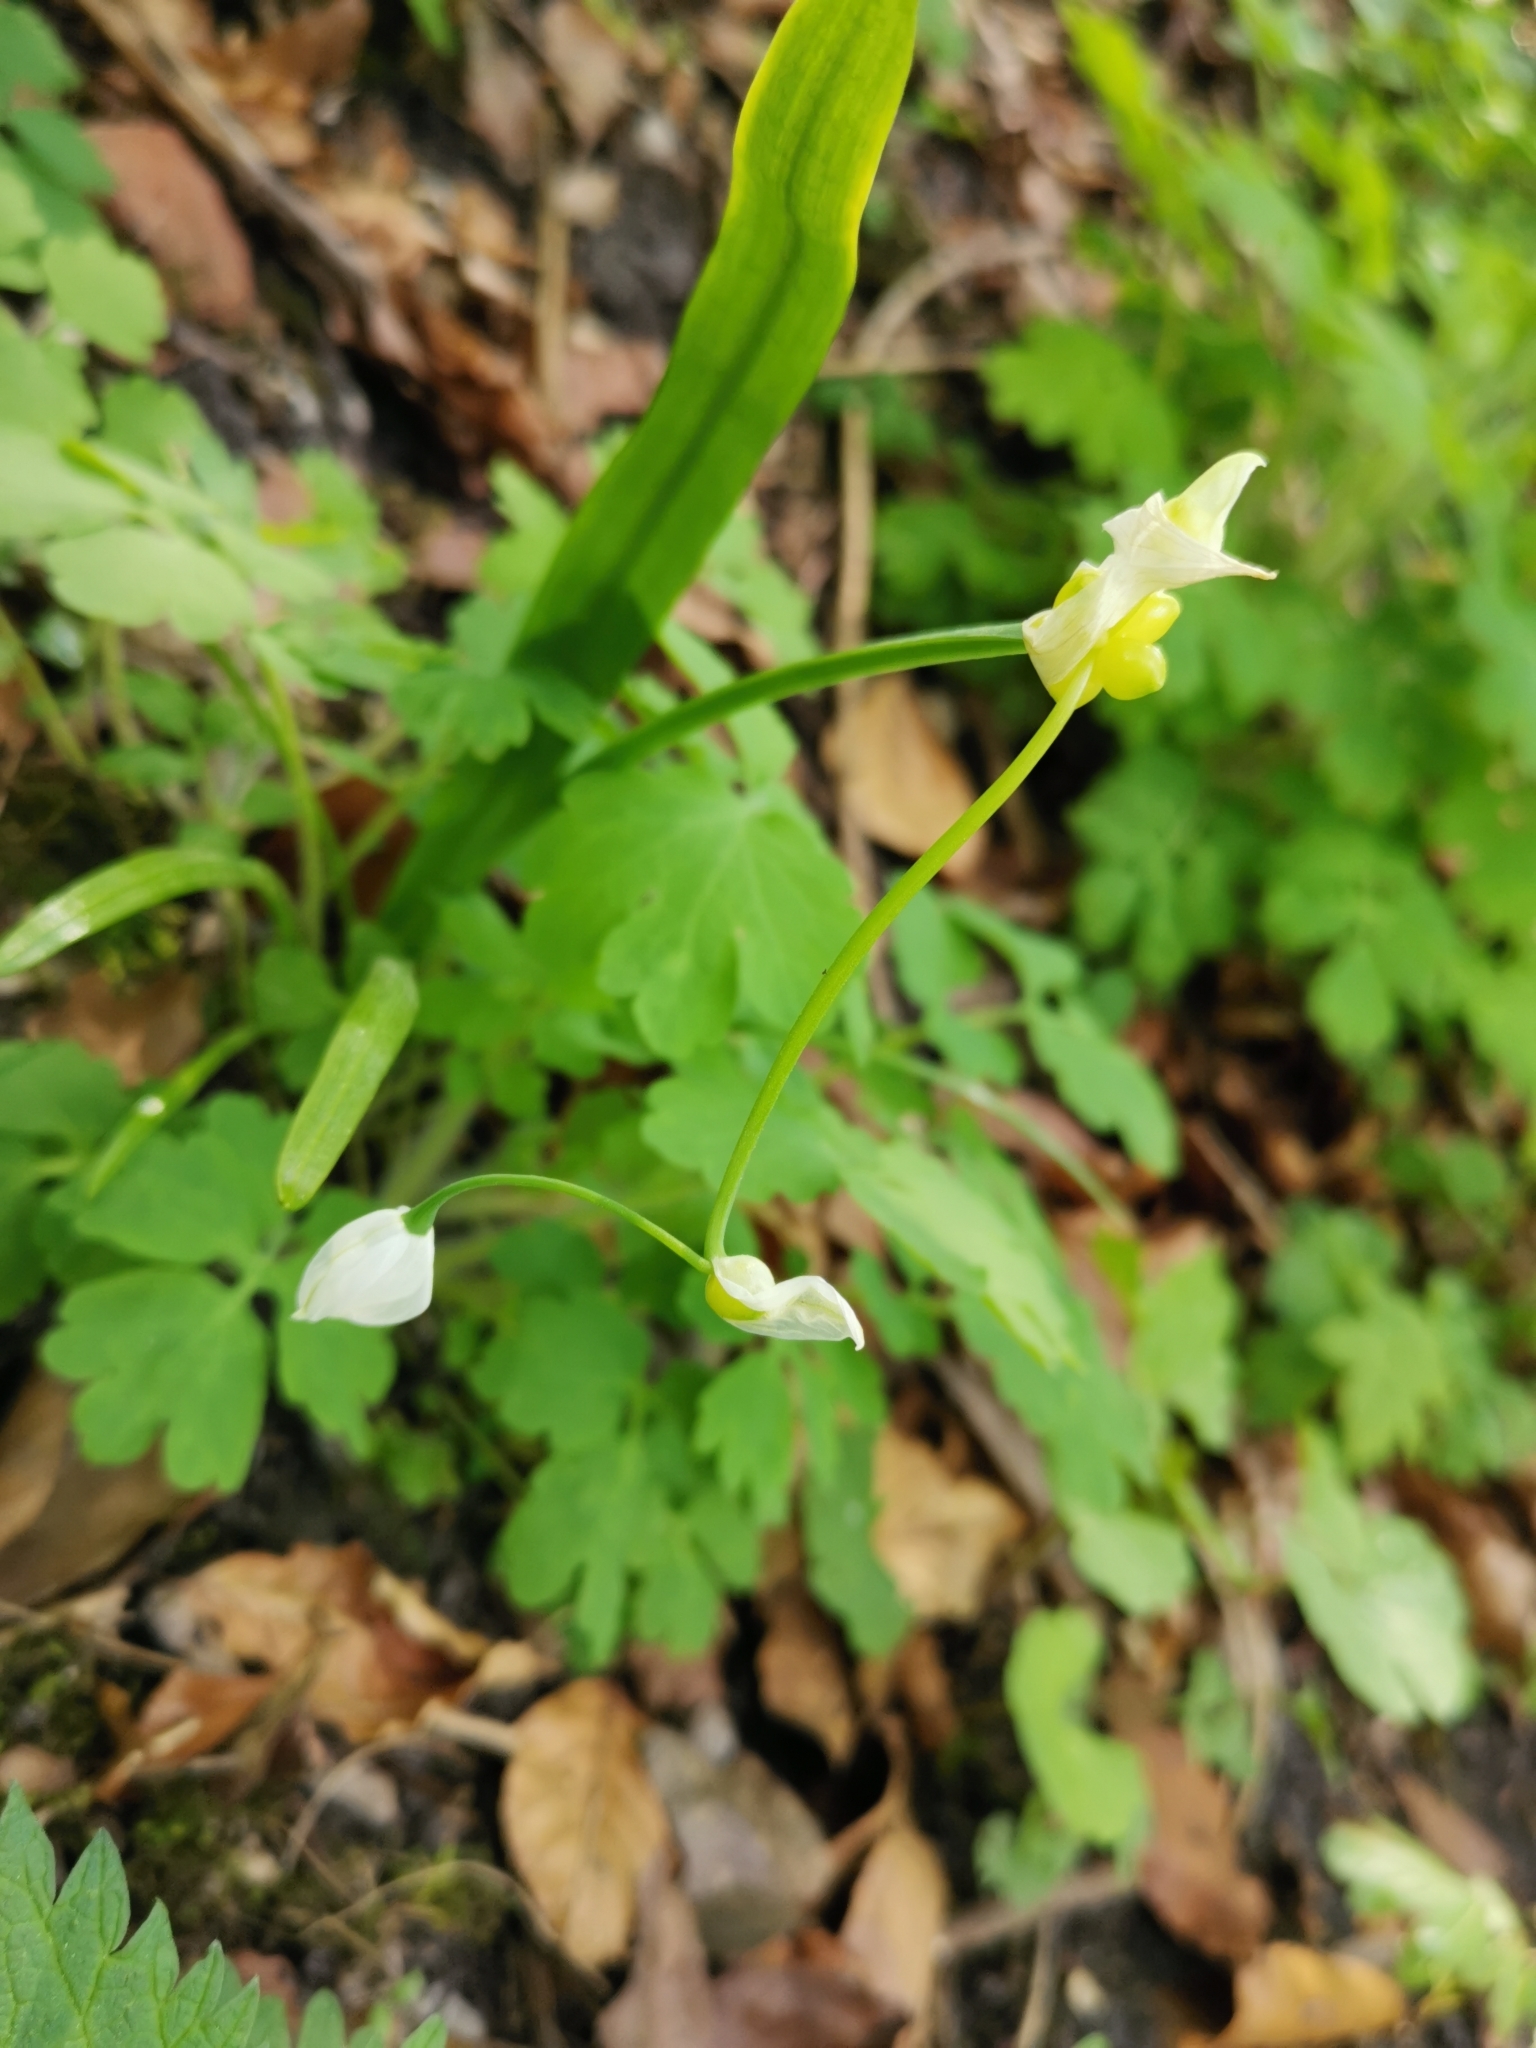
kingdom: Plantae
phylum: Tracheophyta
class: Liliopsida
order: Asparagales
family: Amaryllidaceae
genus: Allium
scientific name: Allium paradoxum
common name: Few-flowered garlic
